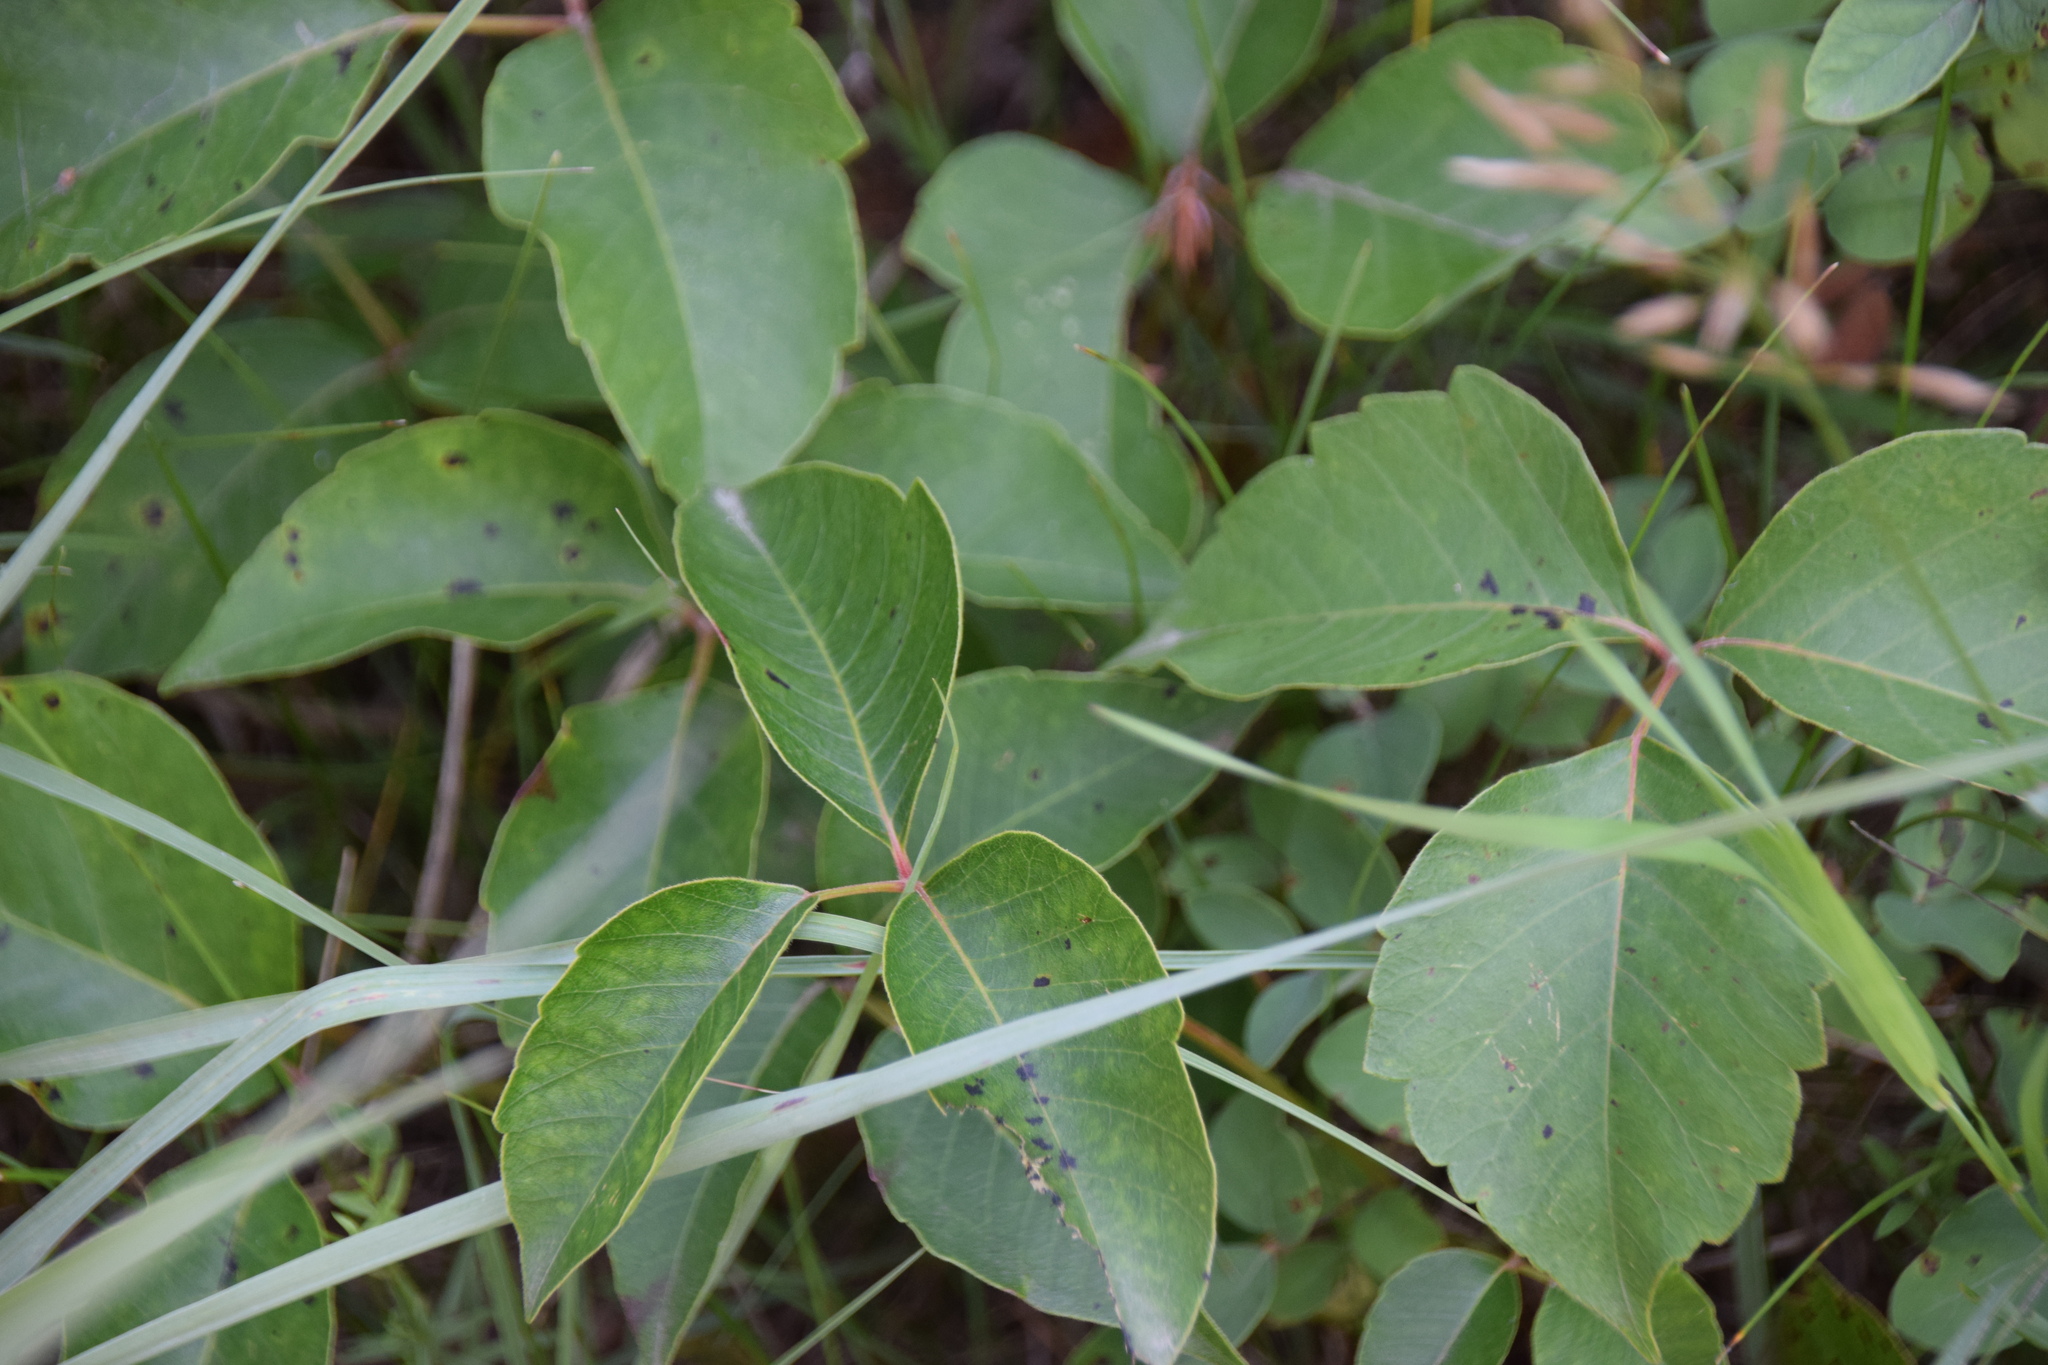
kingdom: Plantae
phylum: Tracheophyta
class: Magnoliopsida
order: Sapindales
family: Anacardiaceae
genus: Toxicodendron
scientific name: Toxicodendron rydbergii
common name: Rydberg's poison-ivy
